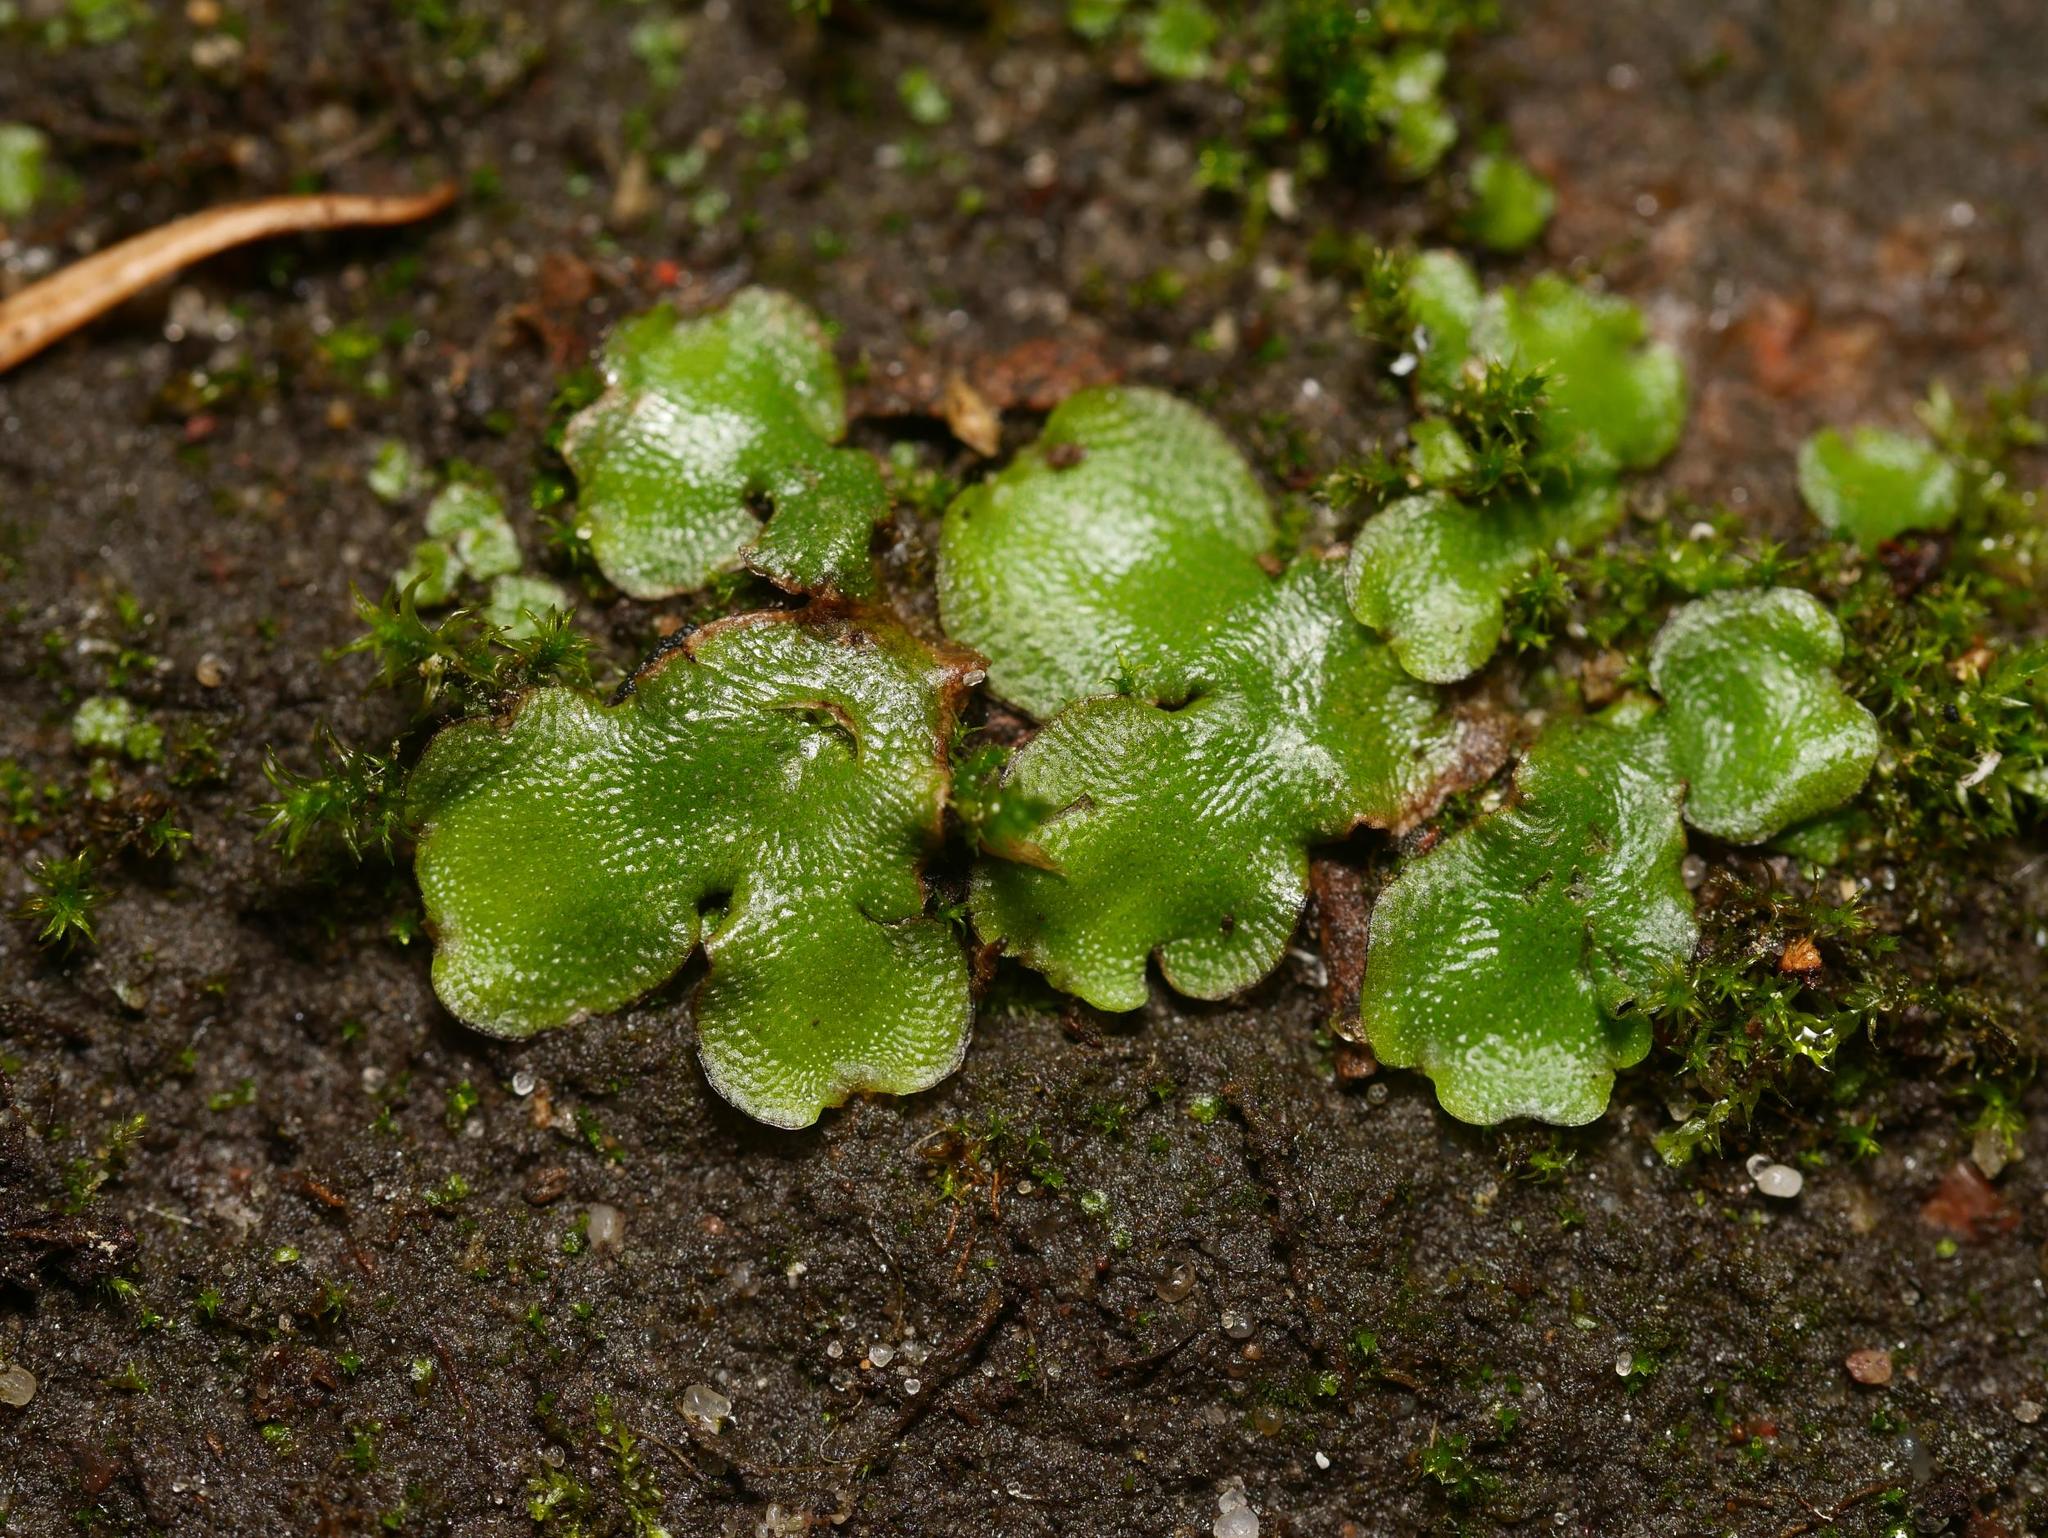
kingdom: Plantae
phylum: Marchantiophyta
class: Marchantiopsida
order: Lunulariales
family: Lunulariaceae
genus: Lunularia
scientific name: Lunularia cruciata
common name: Crescent-cup liverwort
